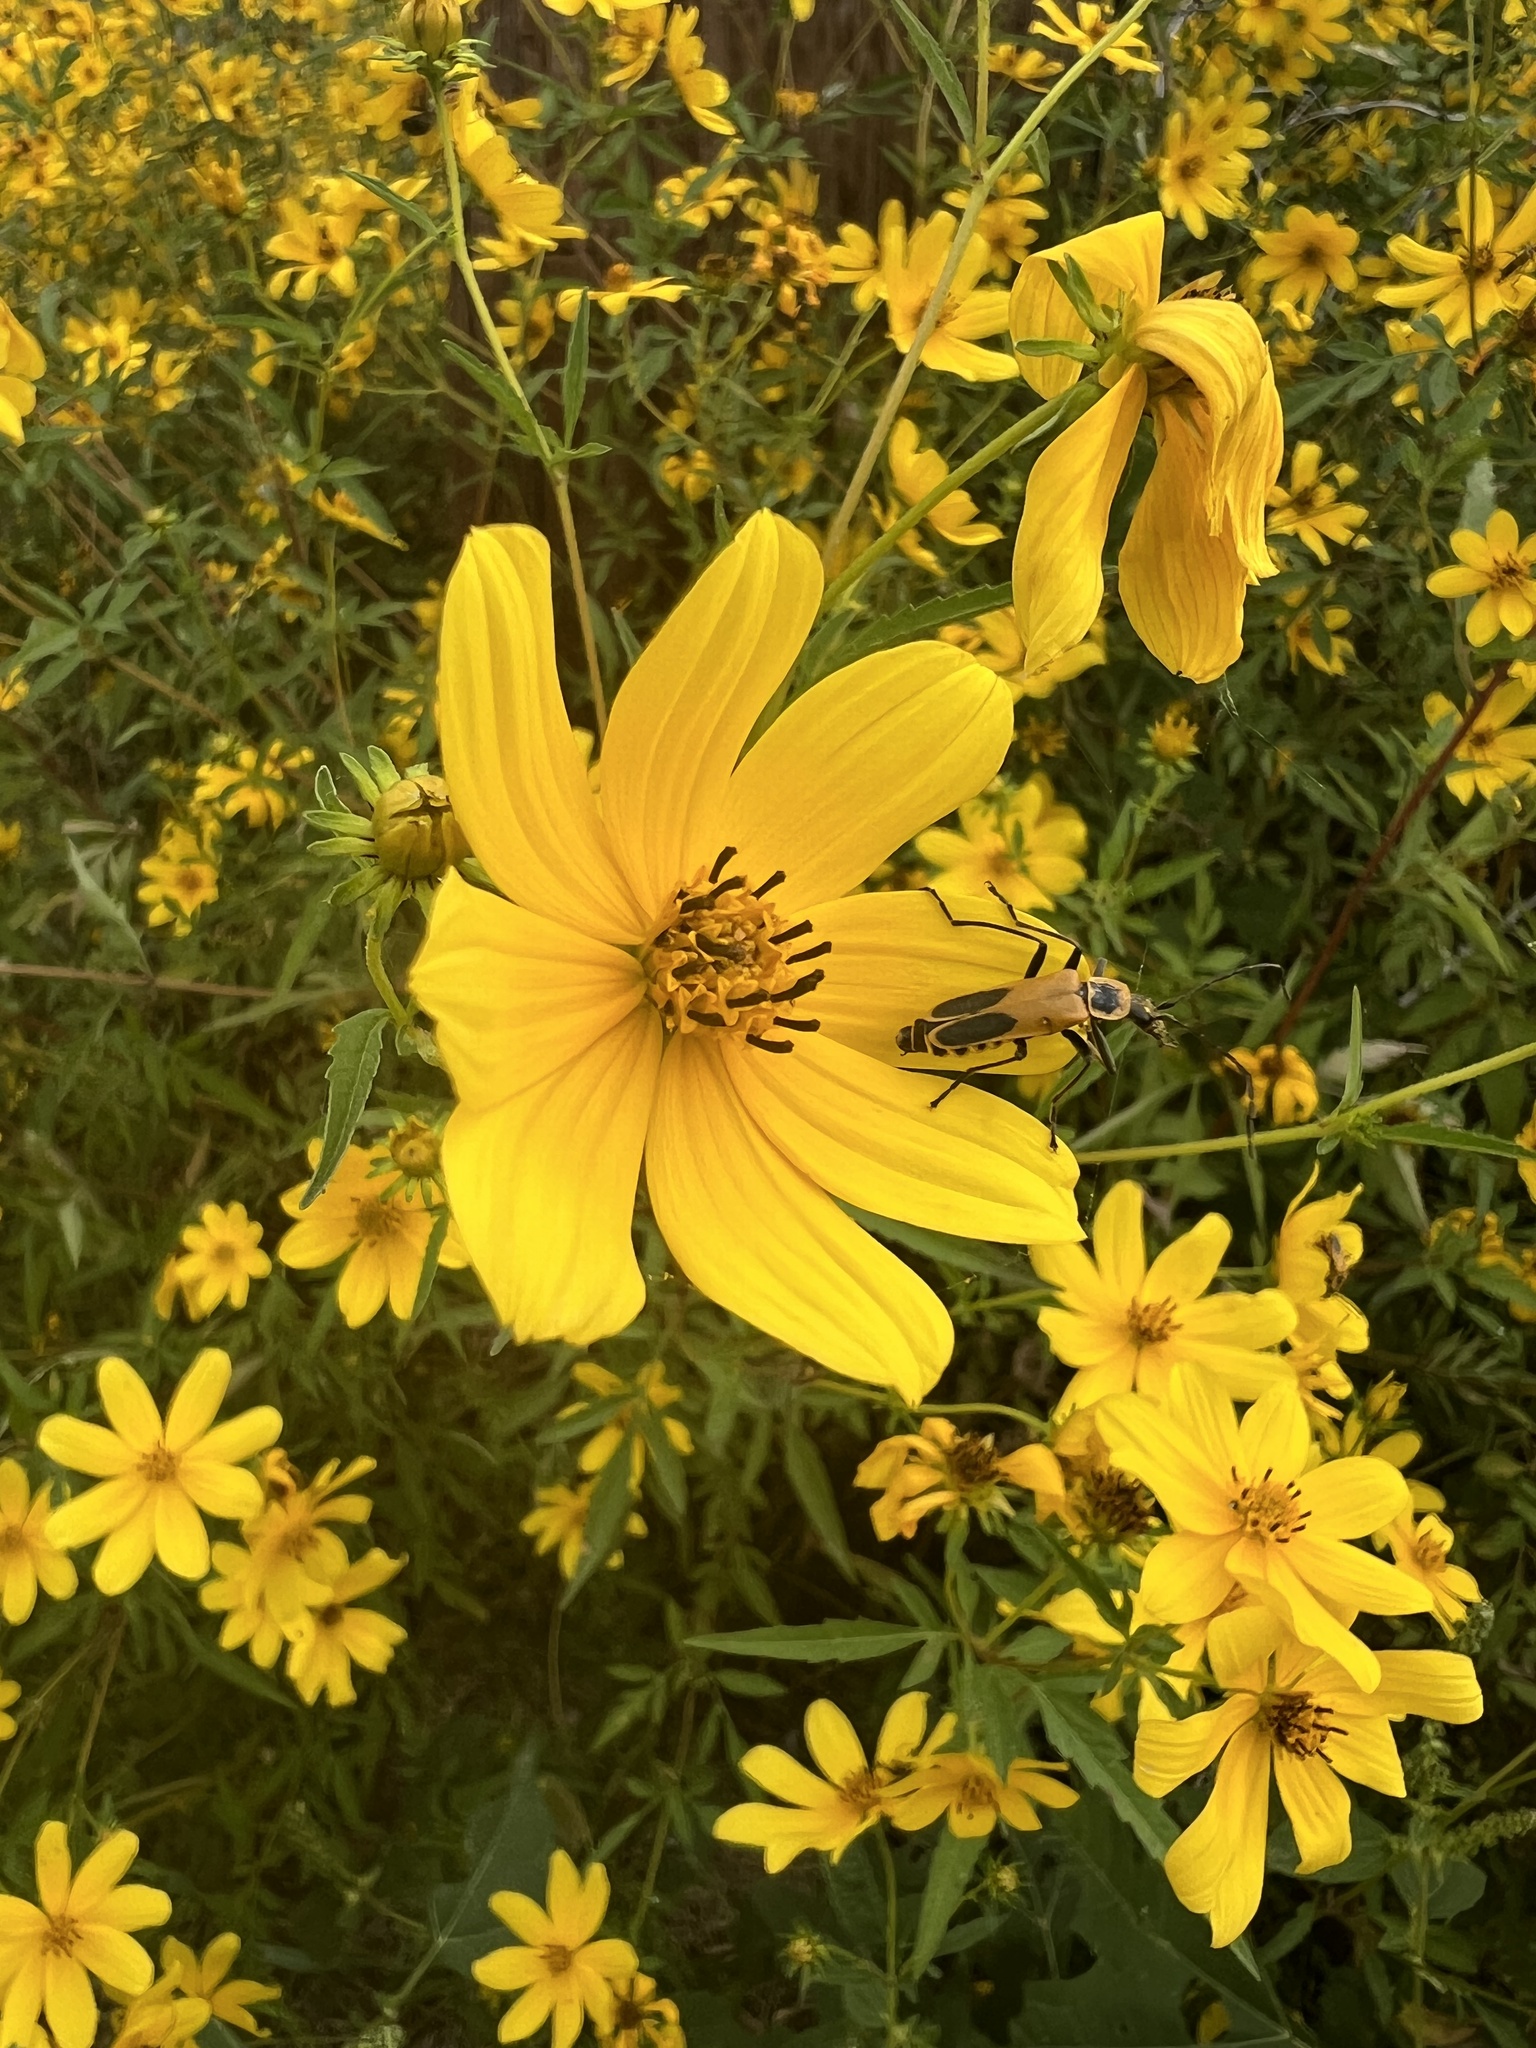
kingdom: Animalia
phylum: Arthropoda
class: Insecta
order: Coleoptera
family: Cantharidae
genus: Chauliognathus
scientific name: Chauliognathus pensylvanicus
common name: Goldenrod soldier beetle
